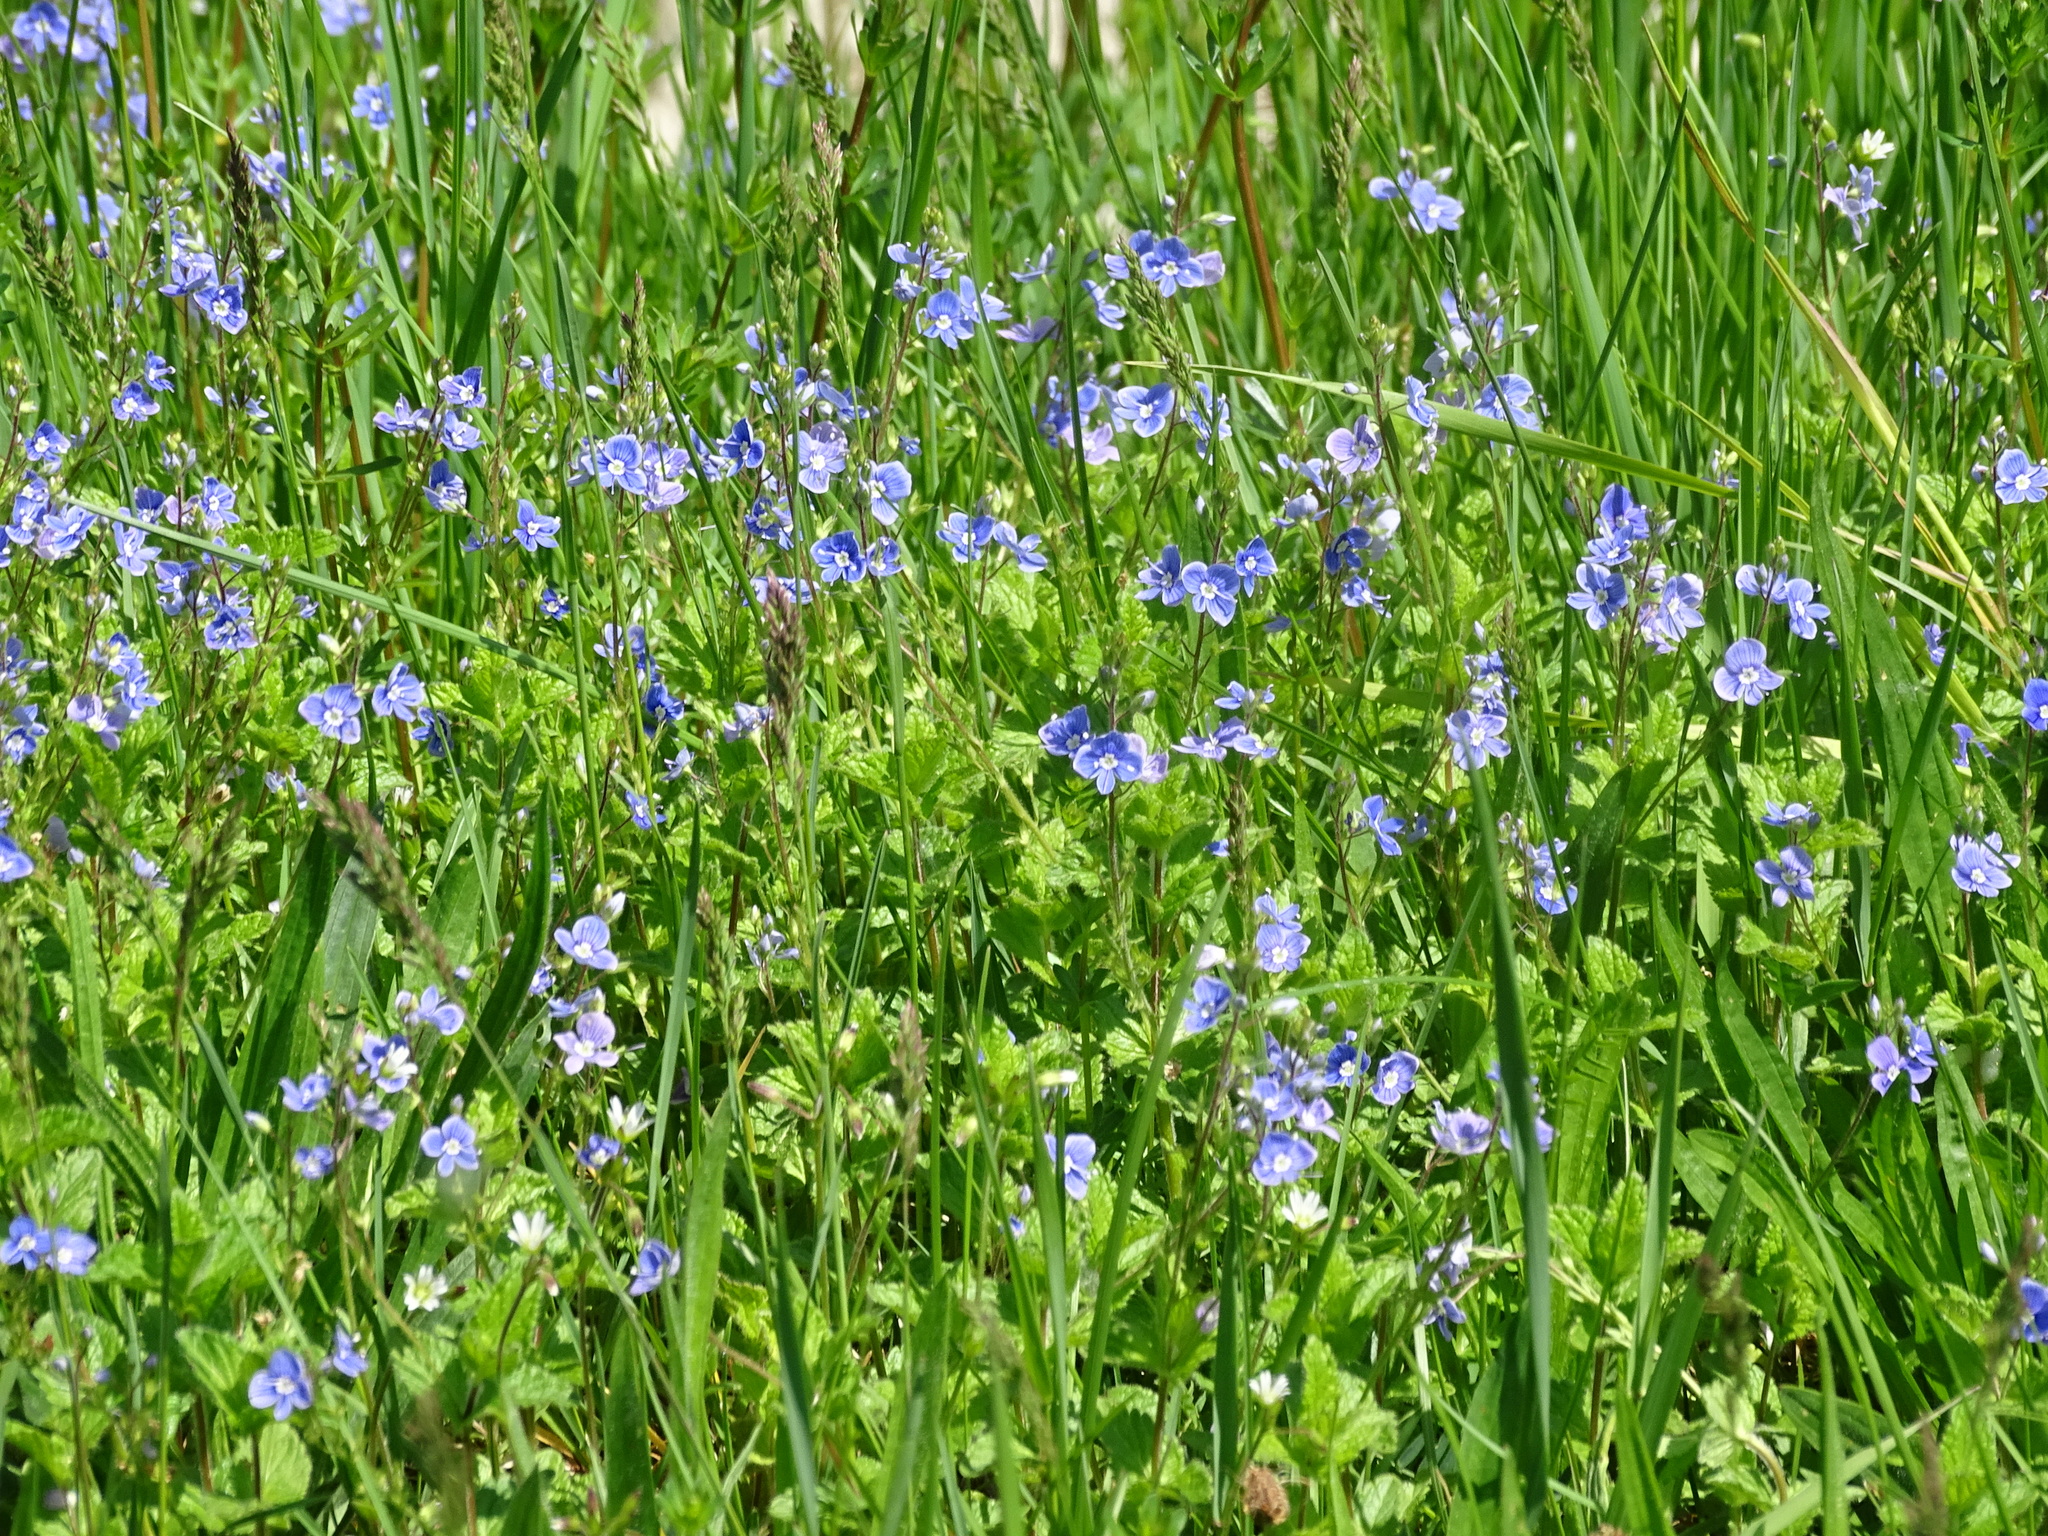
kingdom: Plantae
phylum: Tracheophyta
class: Magnoliopsida
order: Lamiales
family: Plantaginaceae
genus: Veronica
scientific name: Veronica chamaedrys
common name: Germander speedwell
